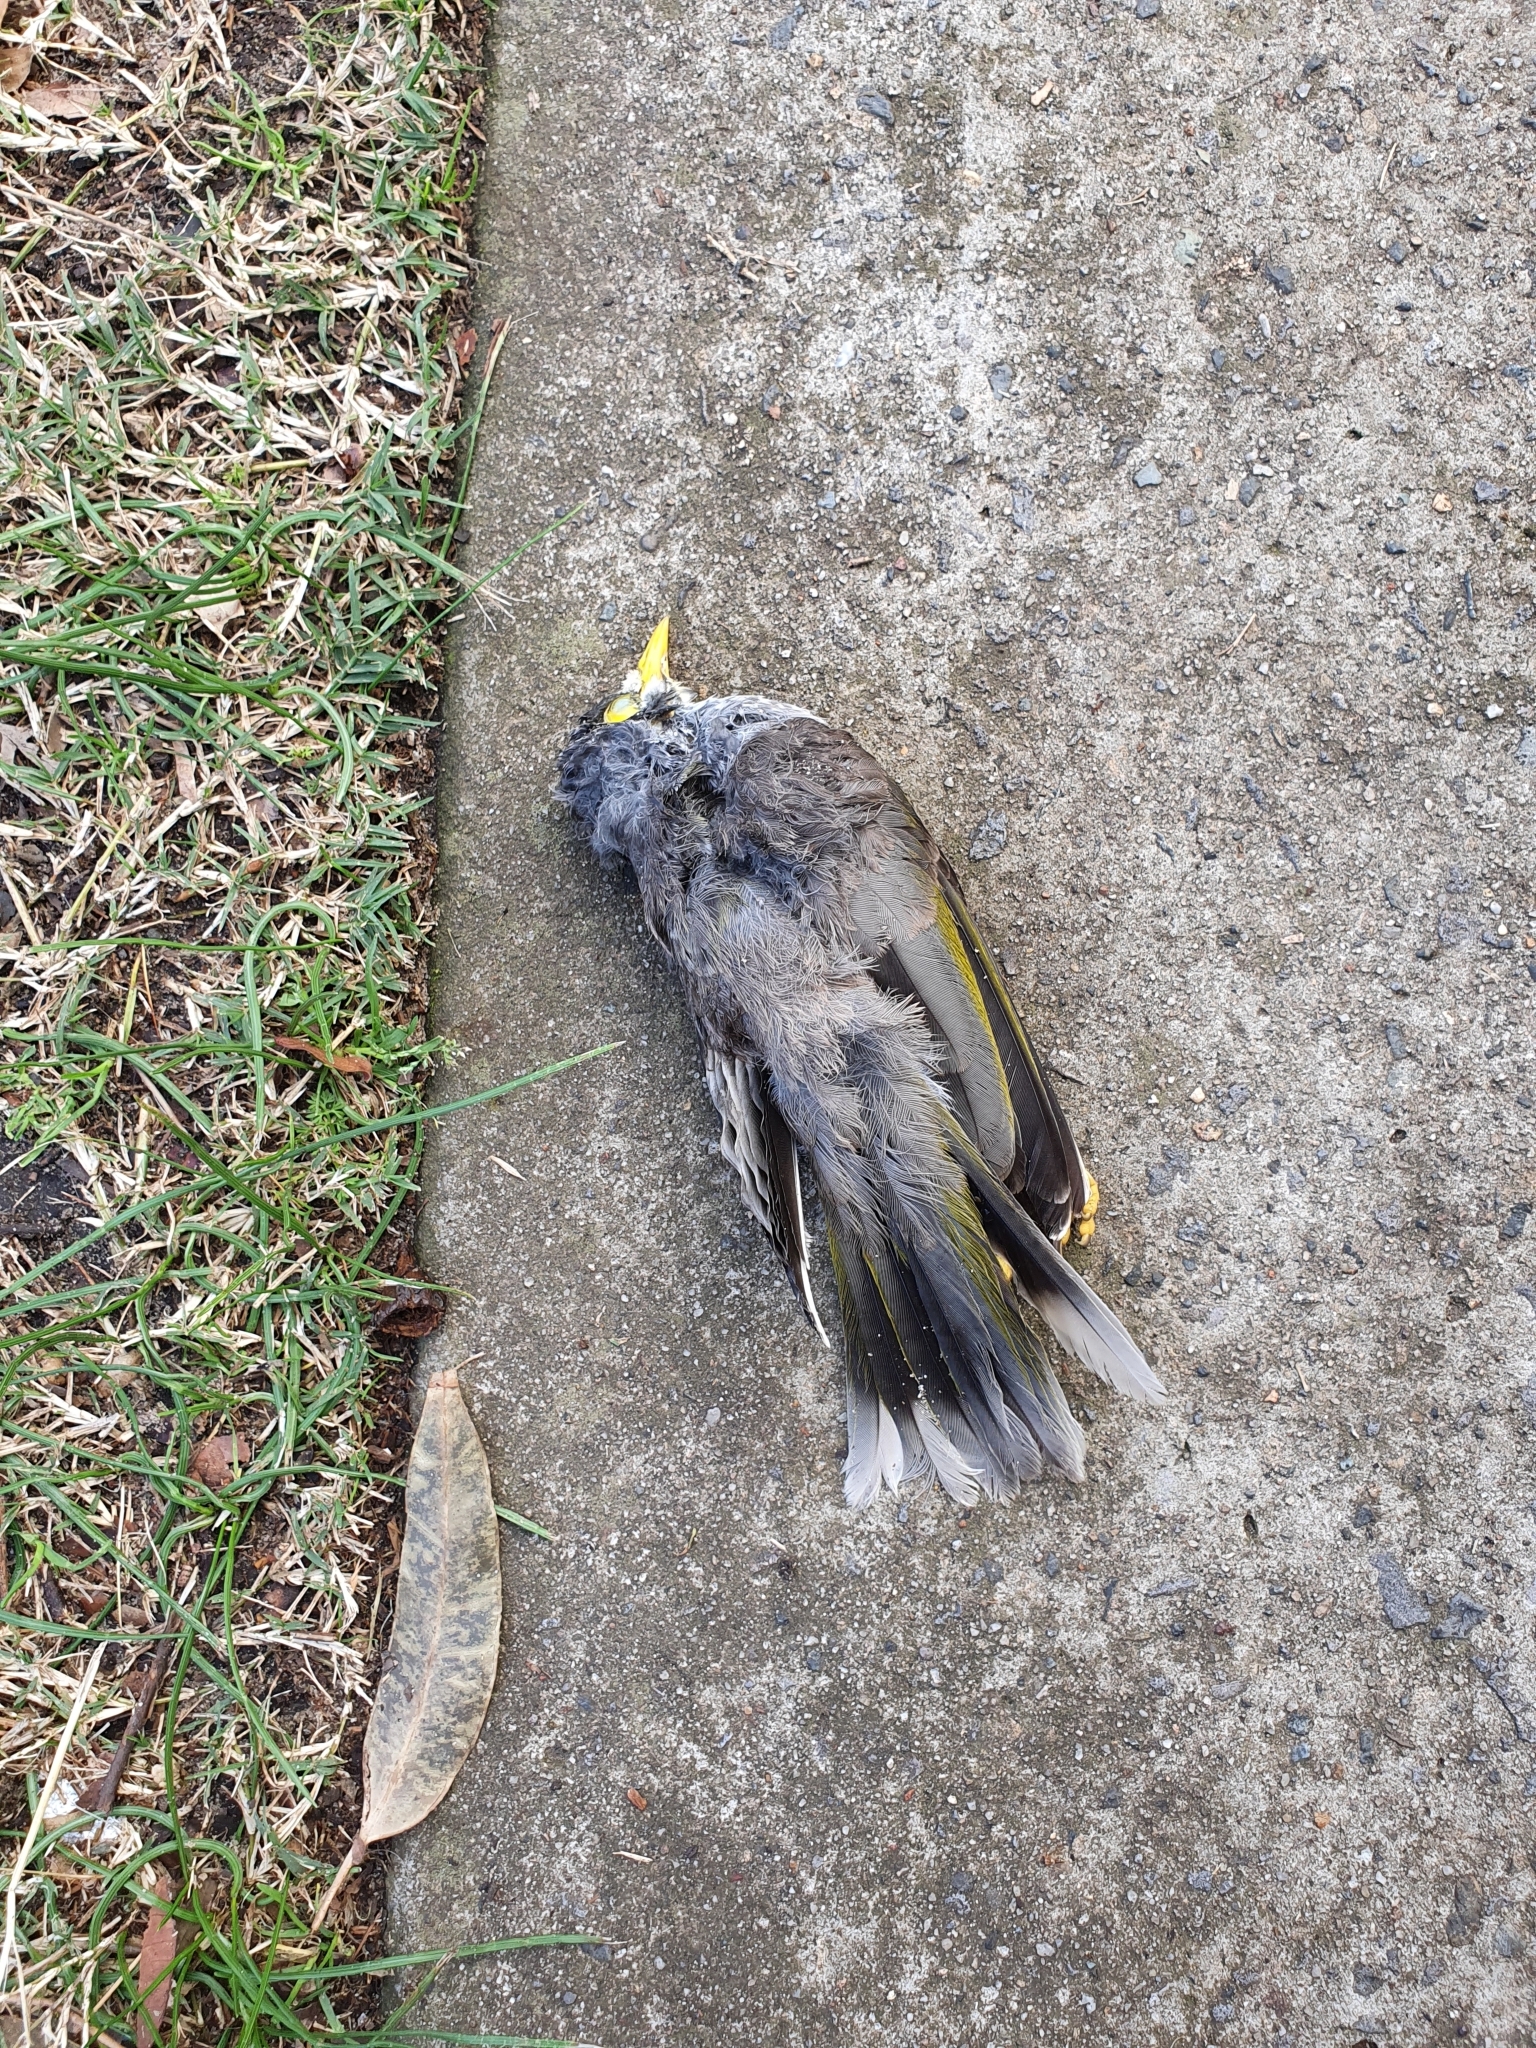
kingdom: Animalia
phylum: Chordata
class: Aves
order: Passeriformes
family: Meliphagidae
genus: Manorina
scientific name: Manorina melanocephala
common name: Noisy miner
